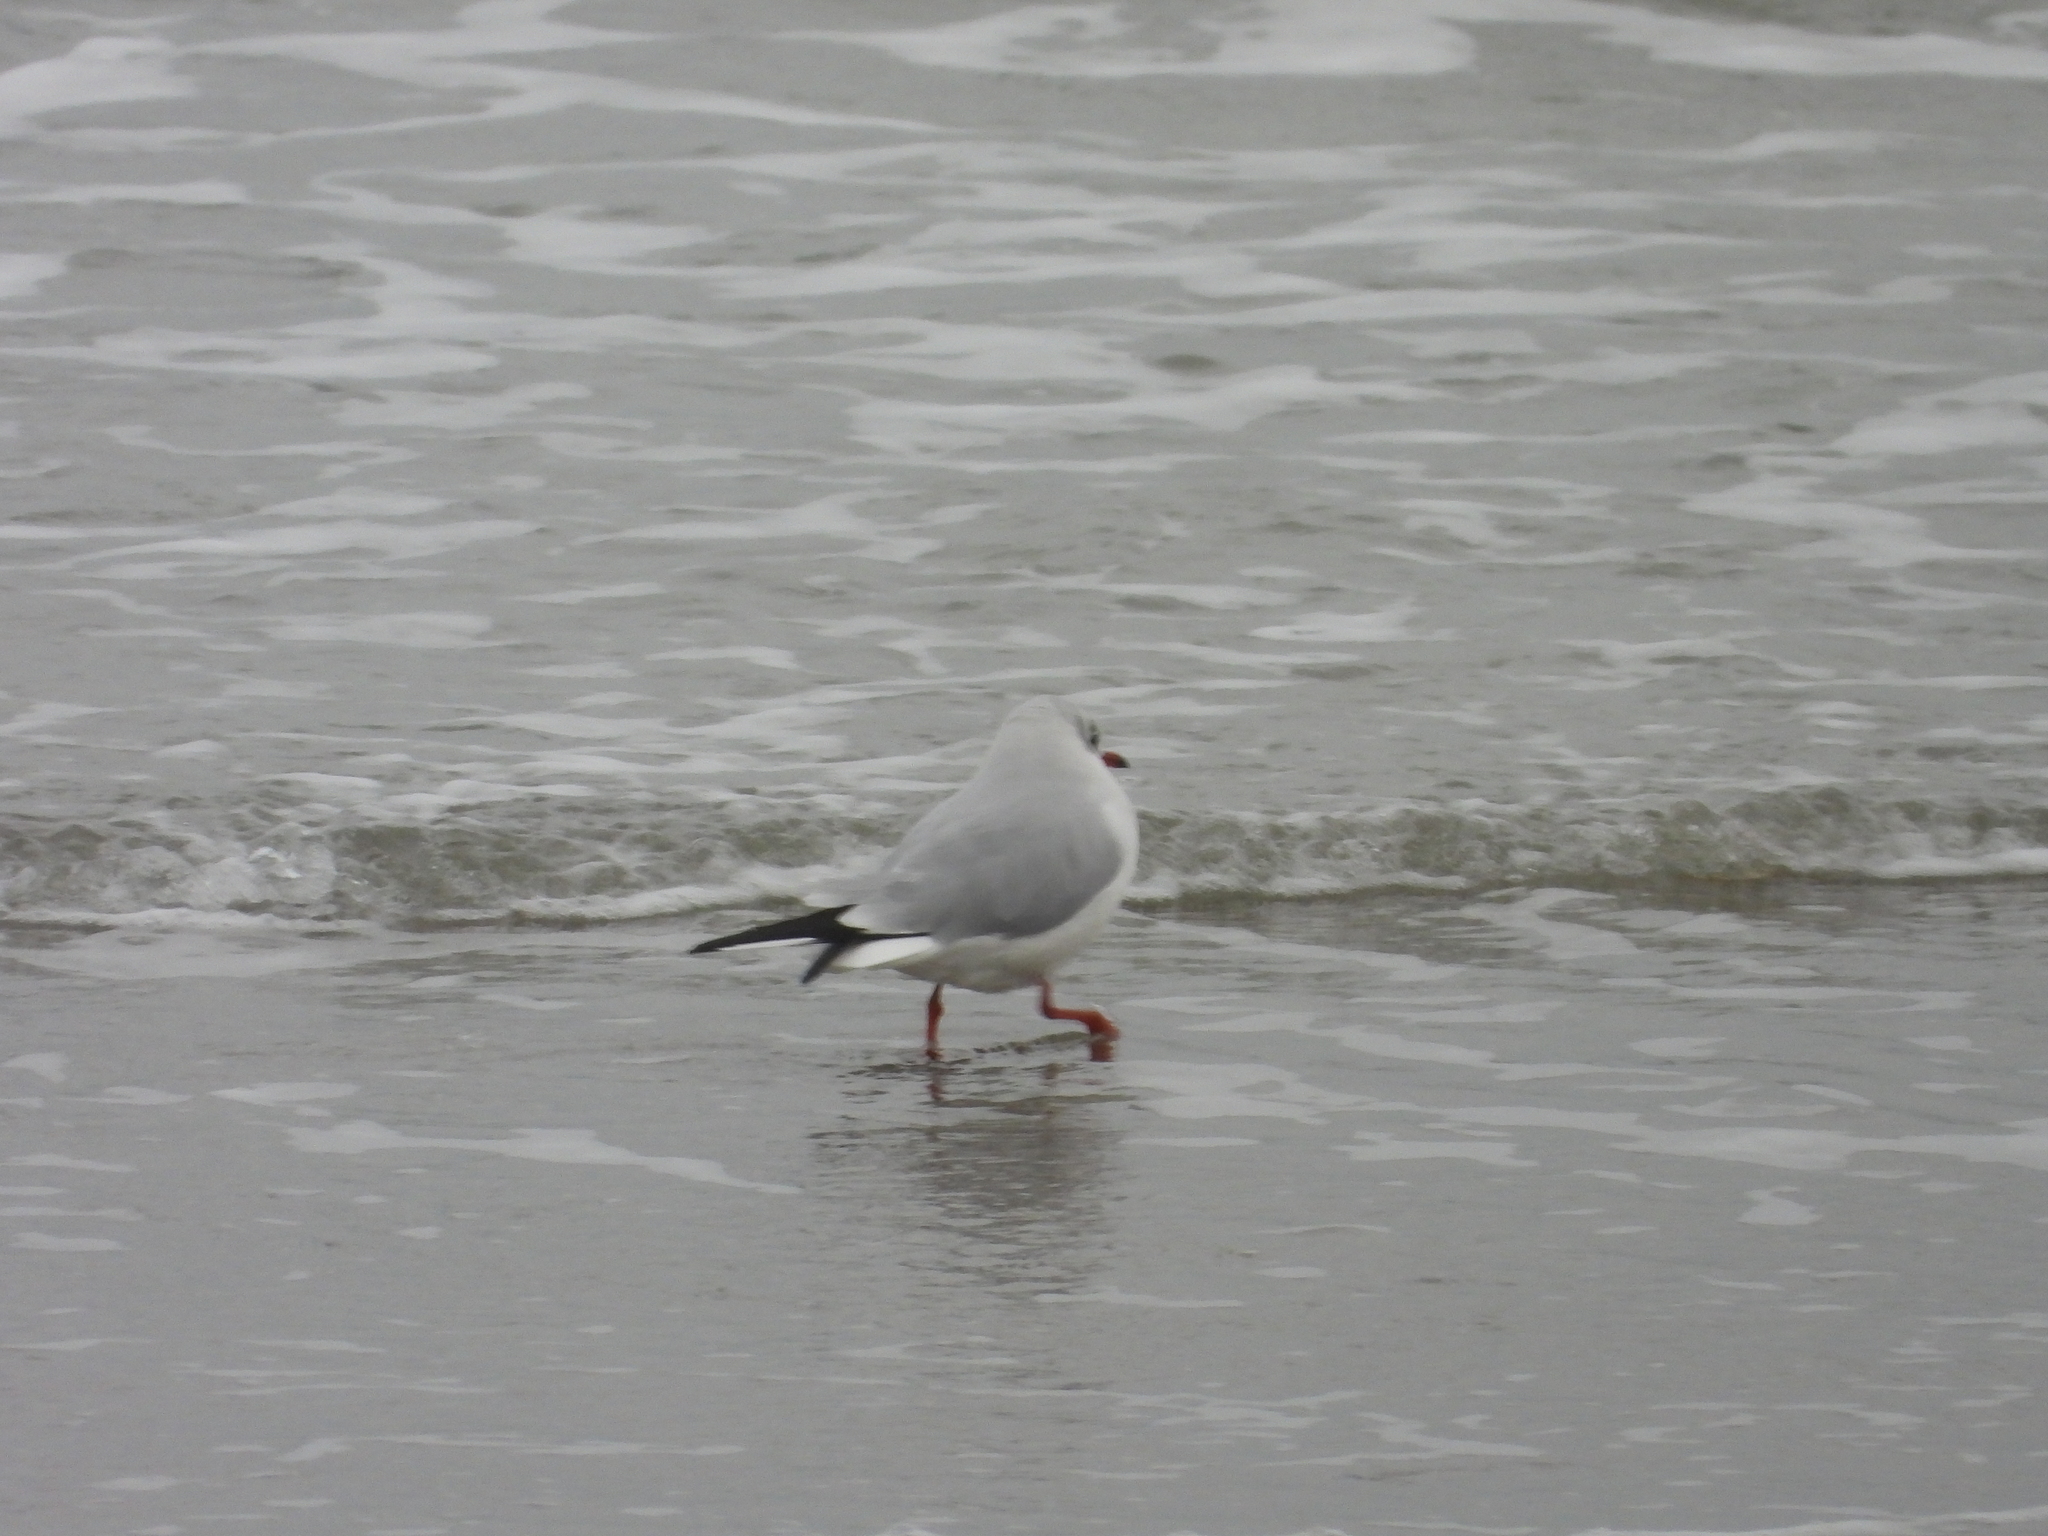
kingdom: Animalia
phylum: Chordata
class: Aves
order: Charadriiformes
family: Laridae
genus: Chroicocephalus
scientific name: Chroicocephalus ridibundus
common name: Black-headed gull
